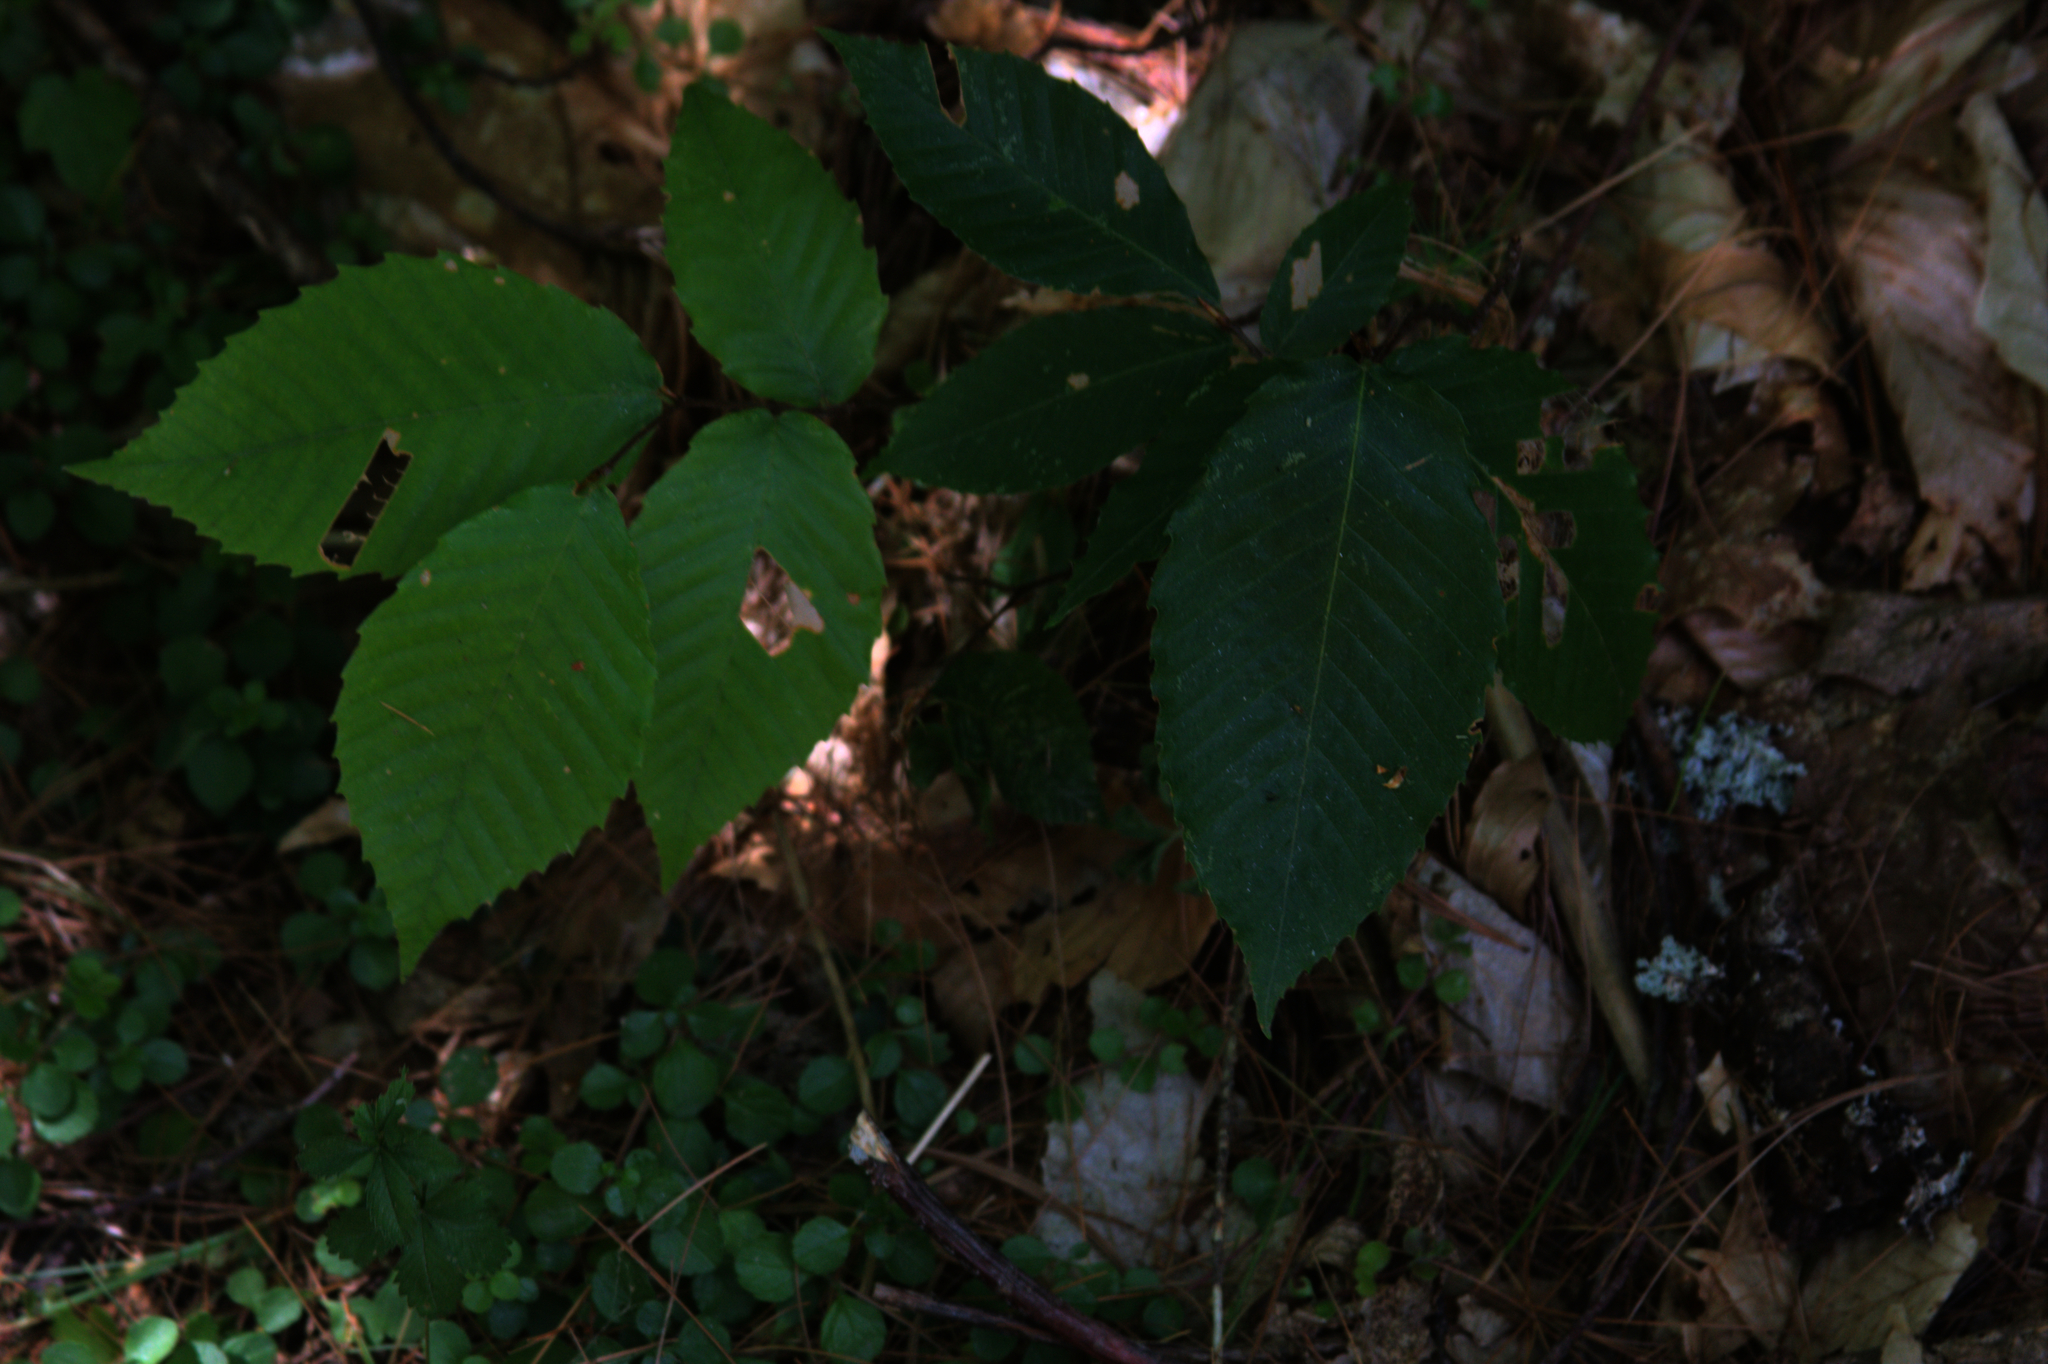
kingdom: Plantae
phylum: Tracheophyta
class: Magnoliopsida
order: Fagales
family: Fagaceae
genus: Fagus
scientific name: Fagus grandifolia
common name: American beech
